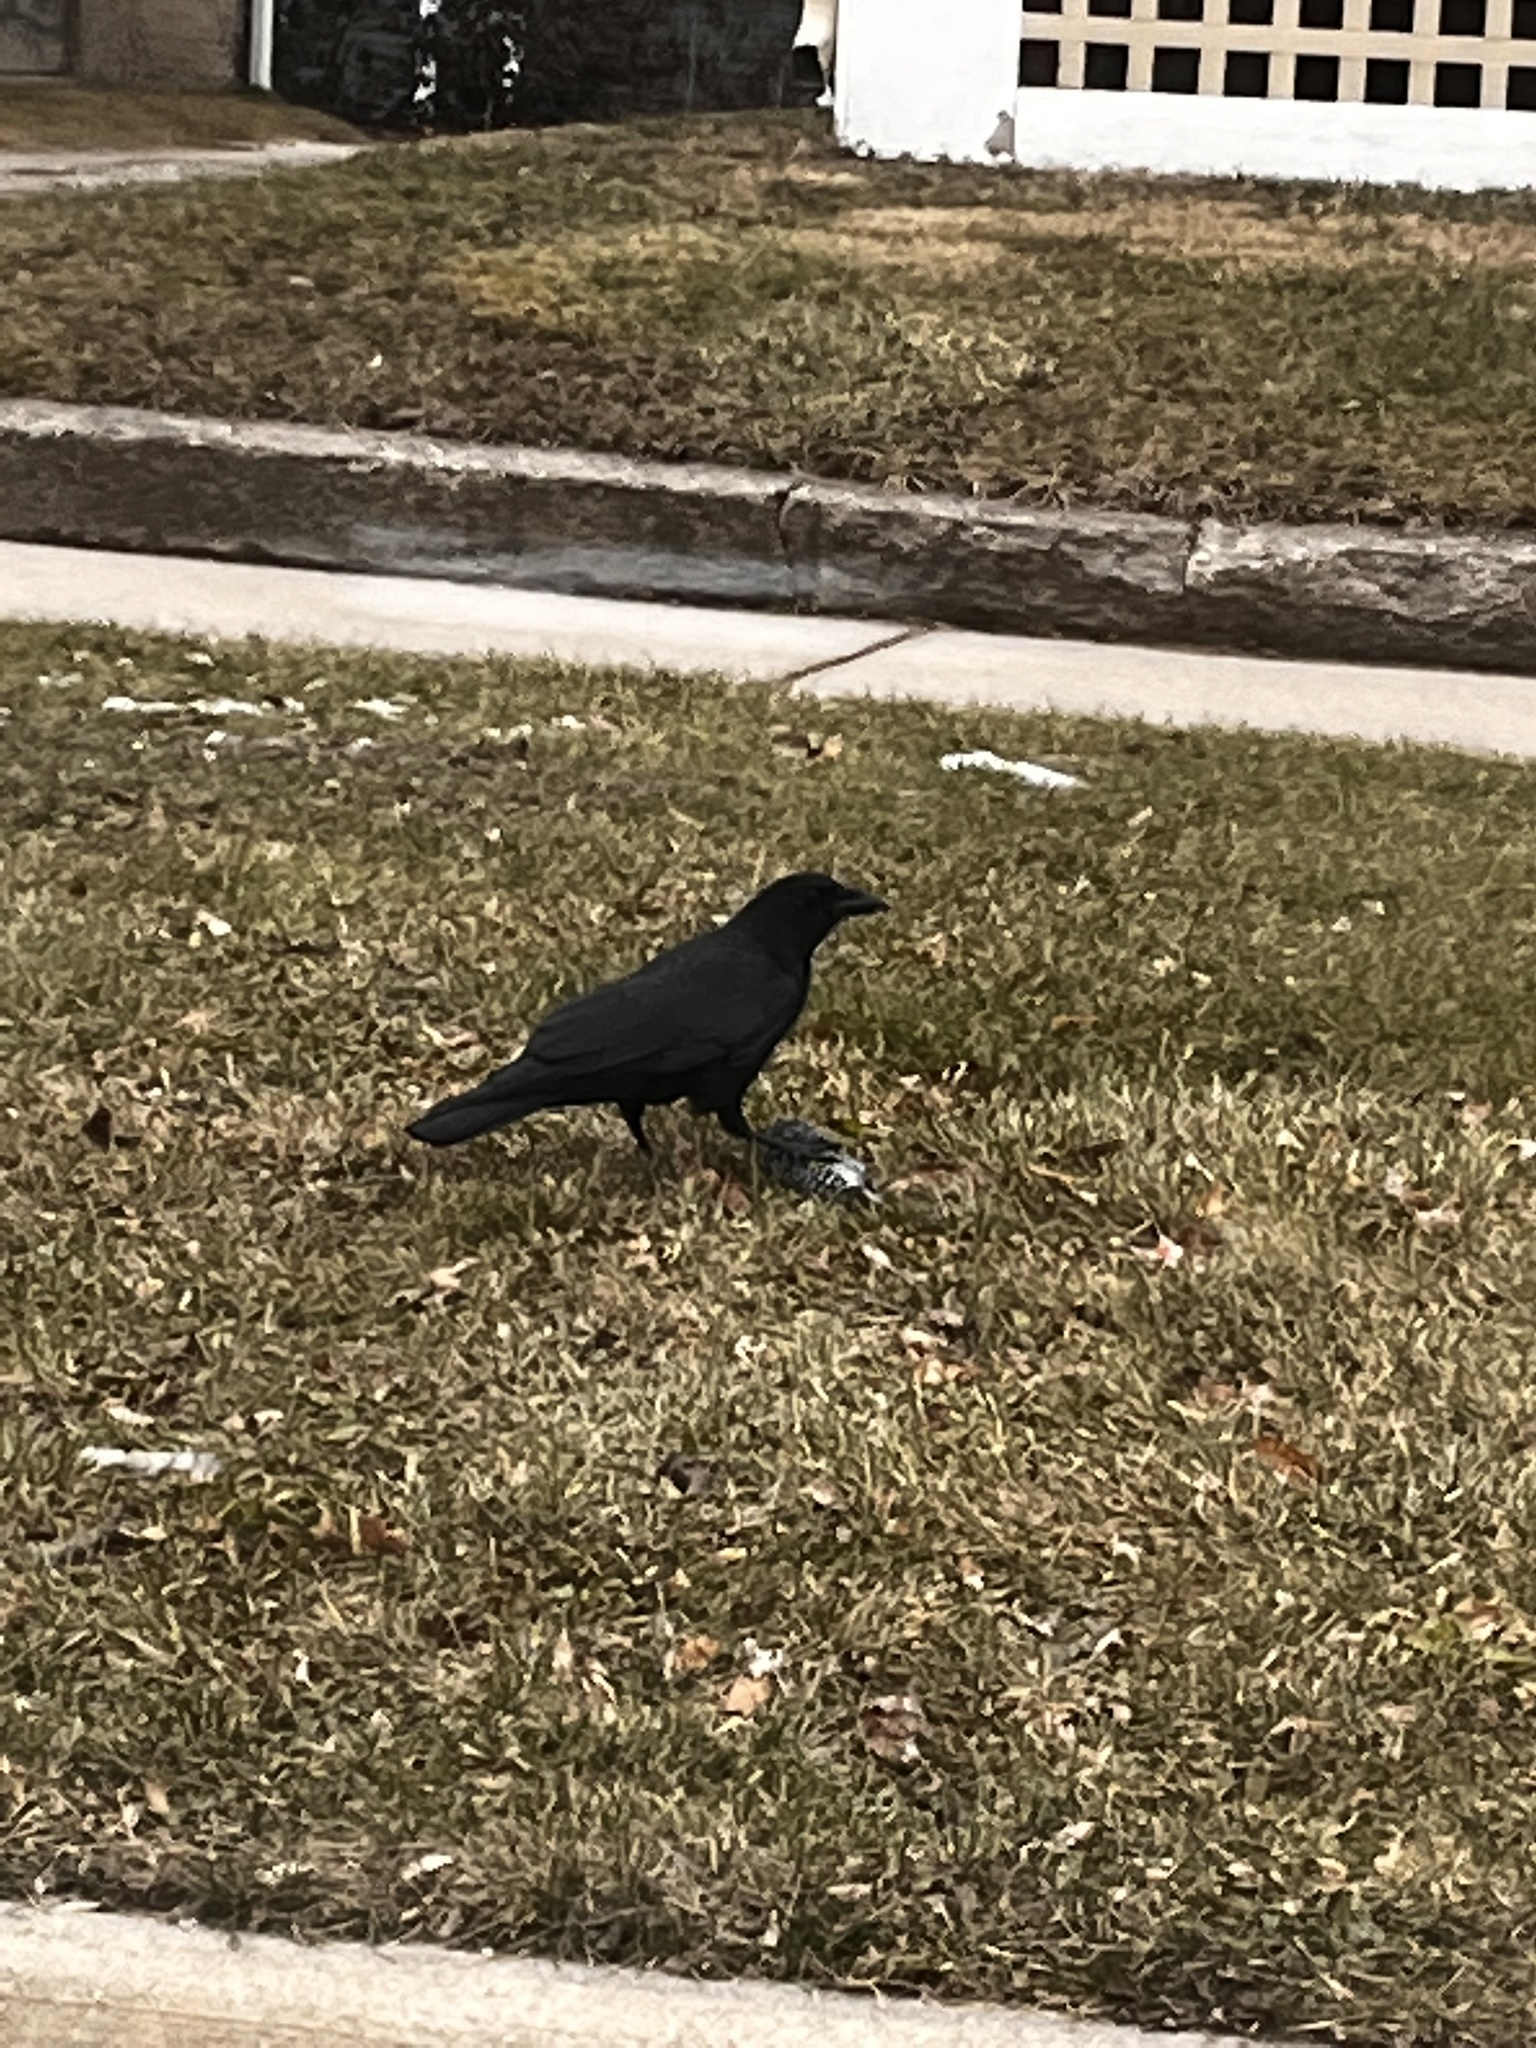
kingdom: Animalia
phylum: Chordata
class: Aves
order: Passeriformes
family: Corvidae
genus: Corvus
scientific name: Corvus brachyrhynchos
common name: American crow
